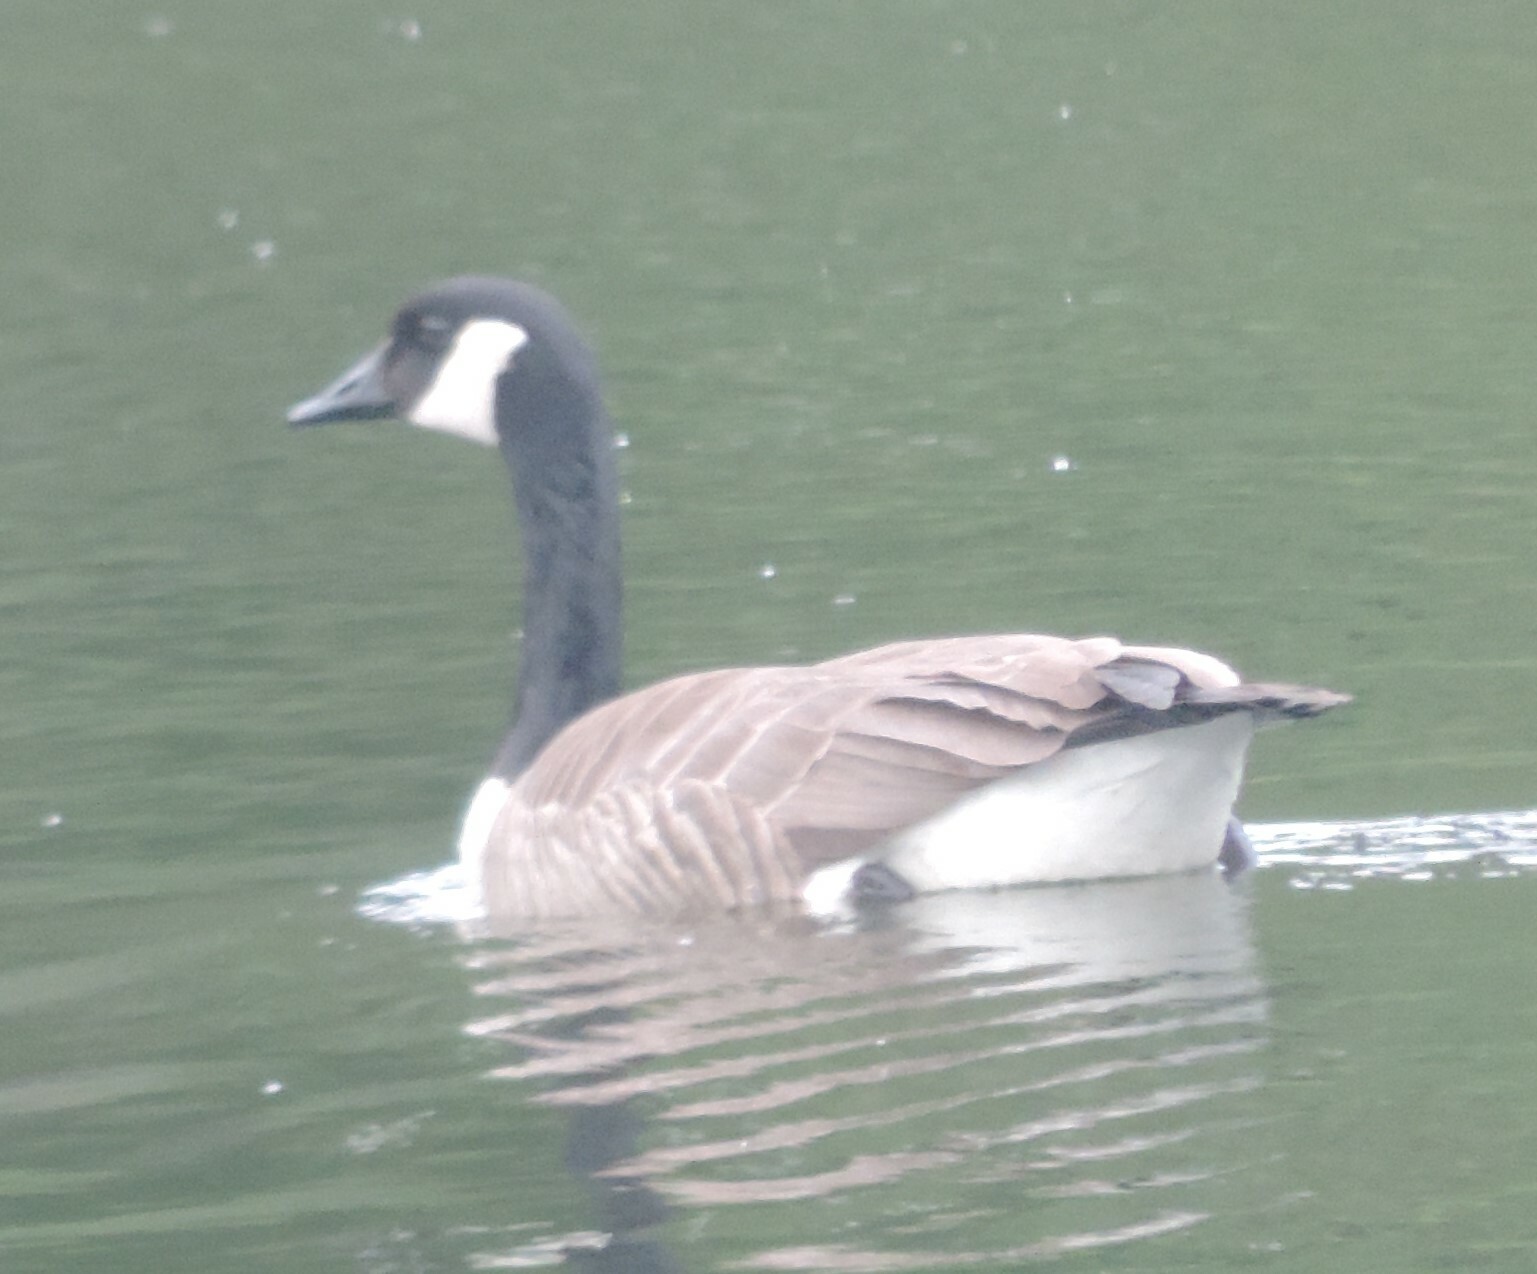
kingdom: Animalia
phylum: Chordata
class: Aves
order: Anseriformes
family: Anatidae
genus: Branta
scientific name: Branta canadensis
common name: Canada goose
